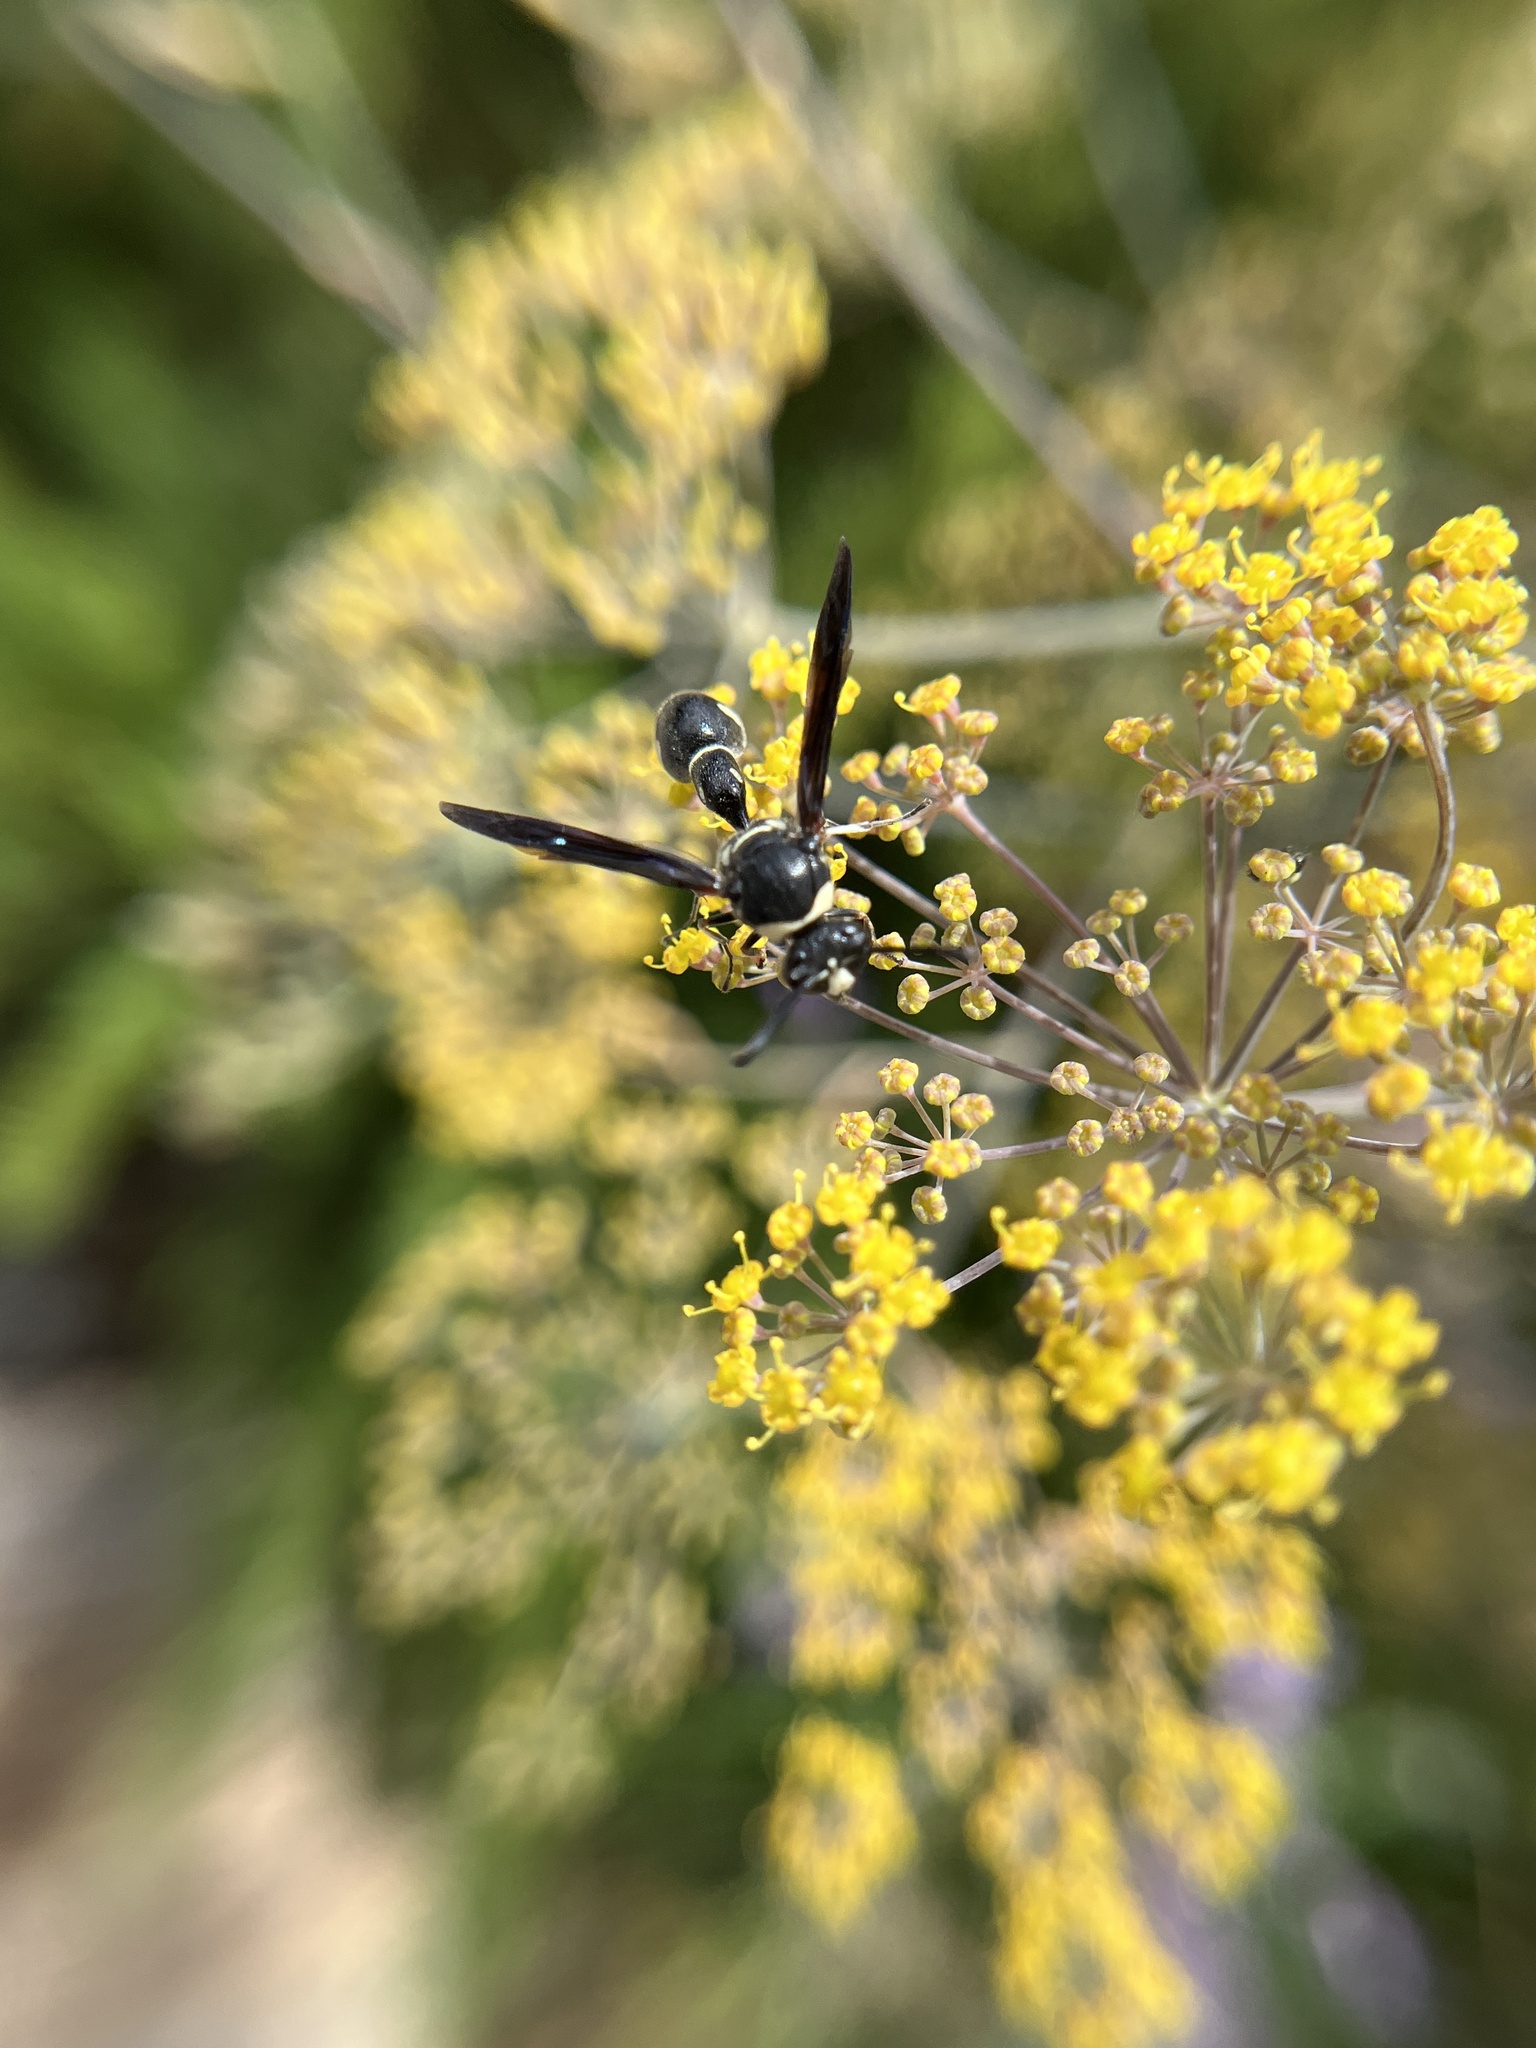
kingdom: Animalia
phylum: Arthropoda
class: Insecta
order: Hymenoptera
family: Vespidae
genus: Eumenes
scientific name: Eumenes fraternus
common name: Fraternal potter wasp
